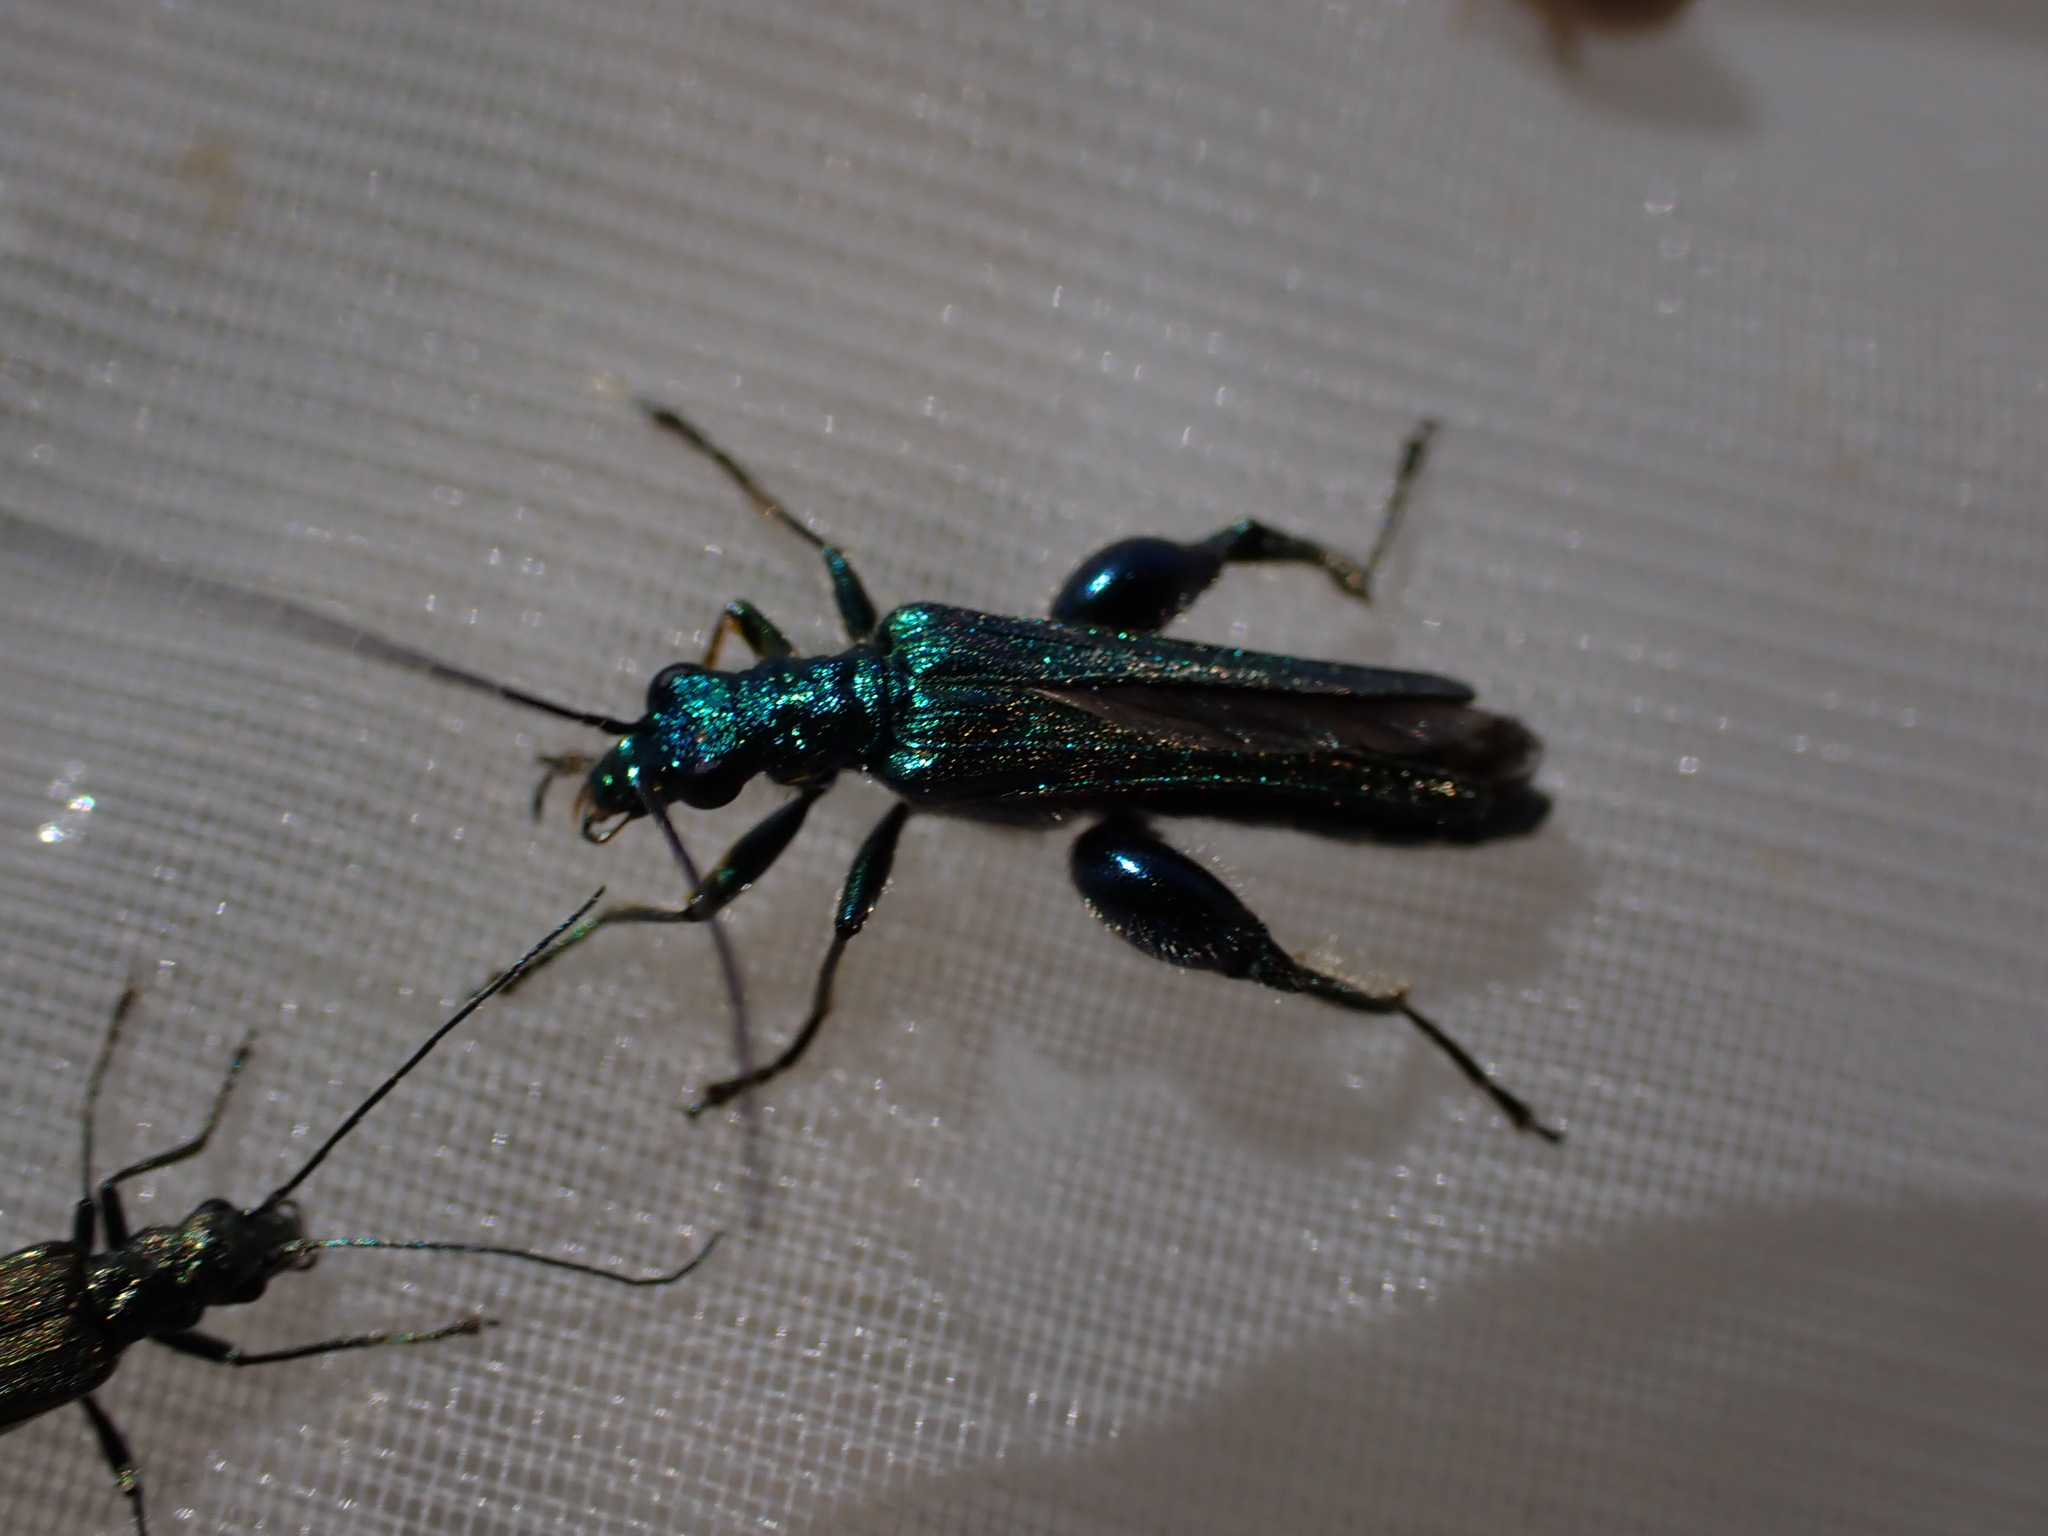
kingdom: Animalia
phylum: Arthropoda
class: Insecta
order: Coleoptera
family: Oedemeridae
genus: Oedemera
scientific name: Oedemera nobilis
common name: Swollen-thighed beetle
